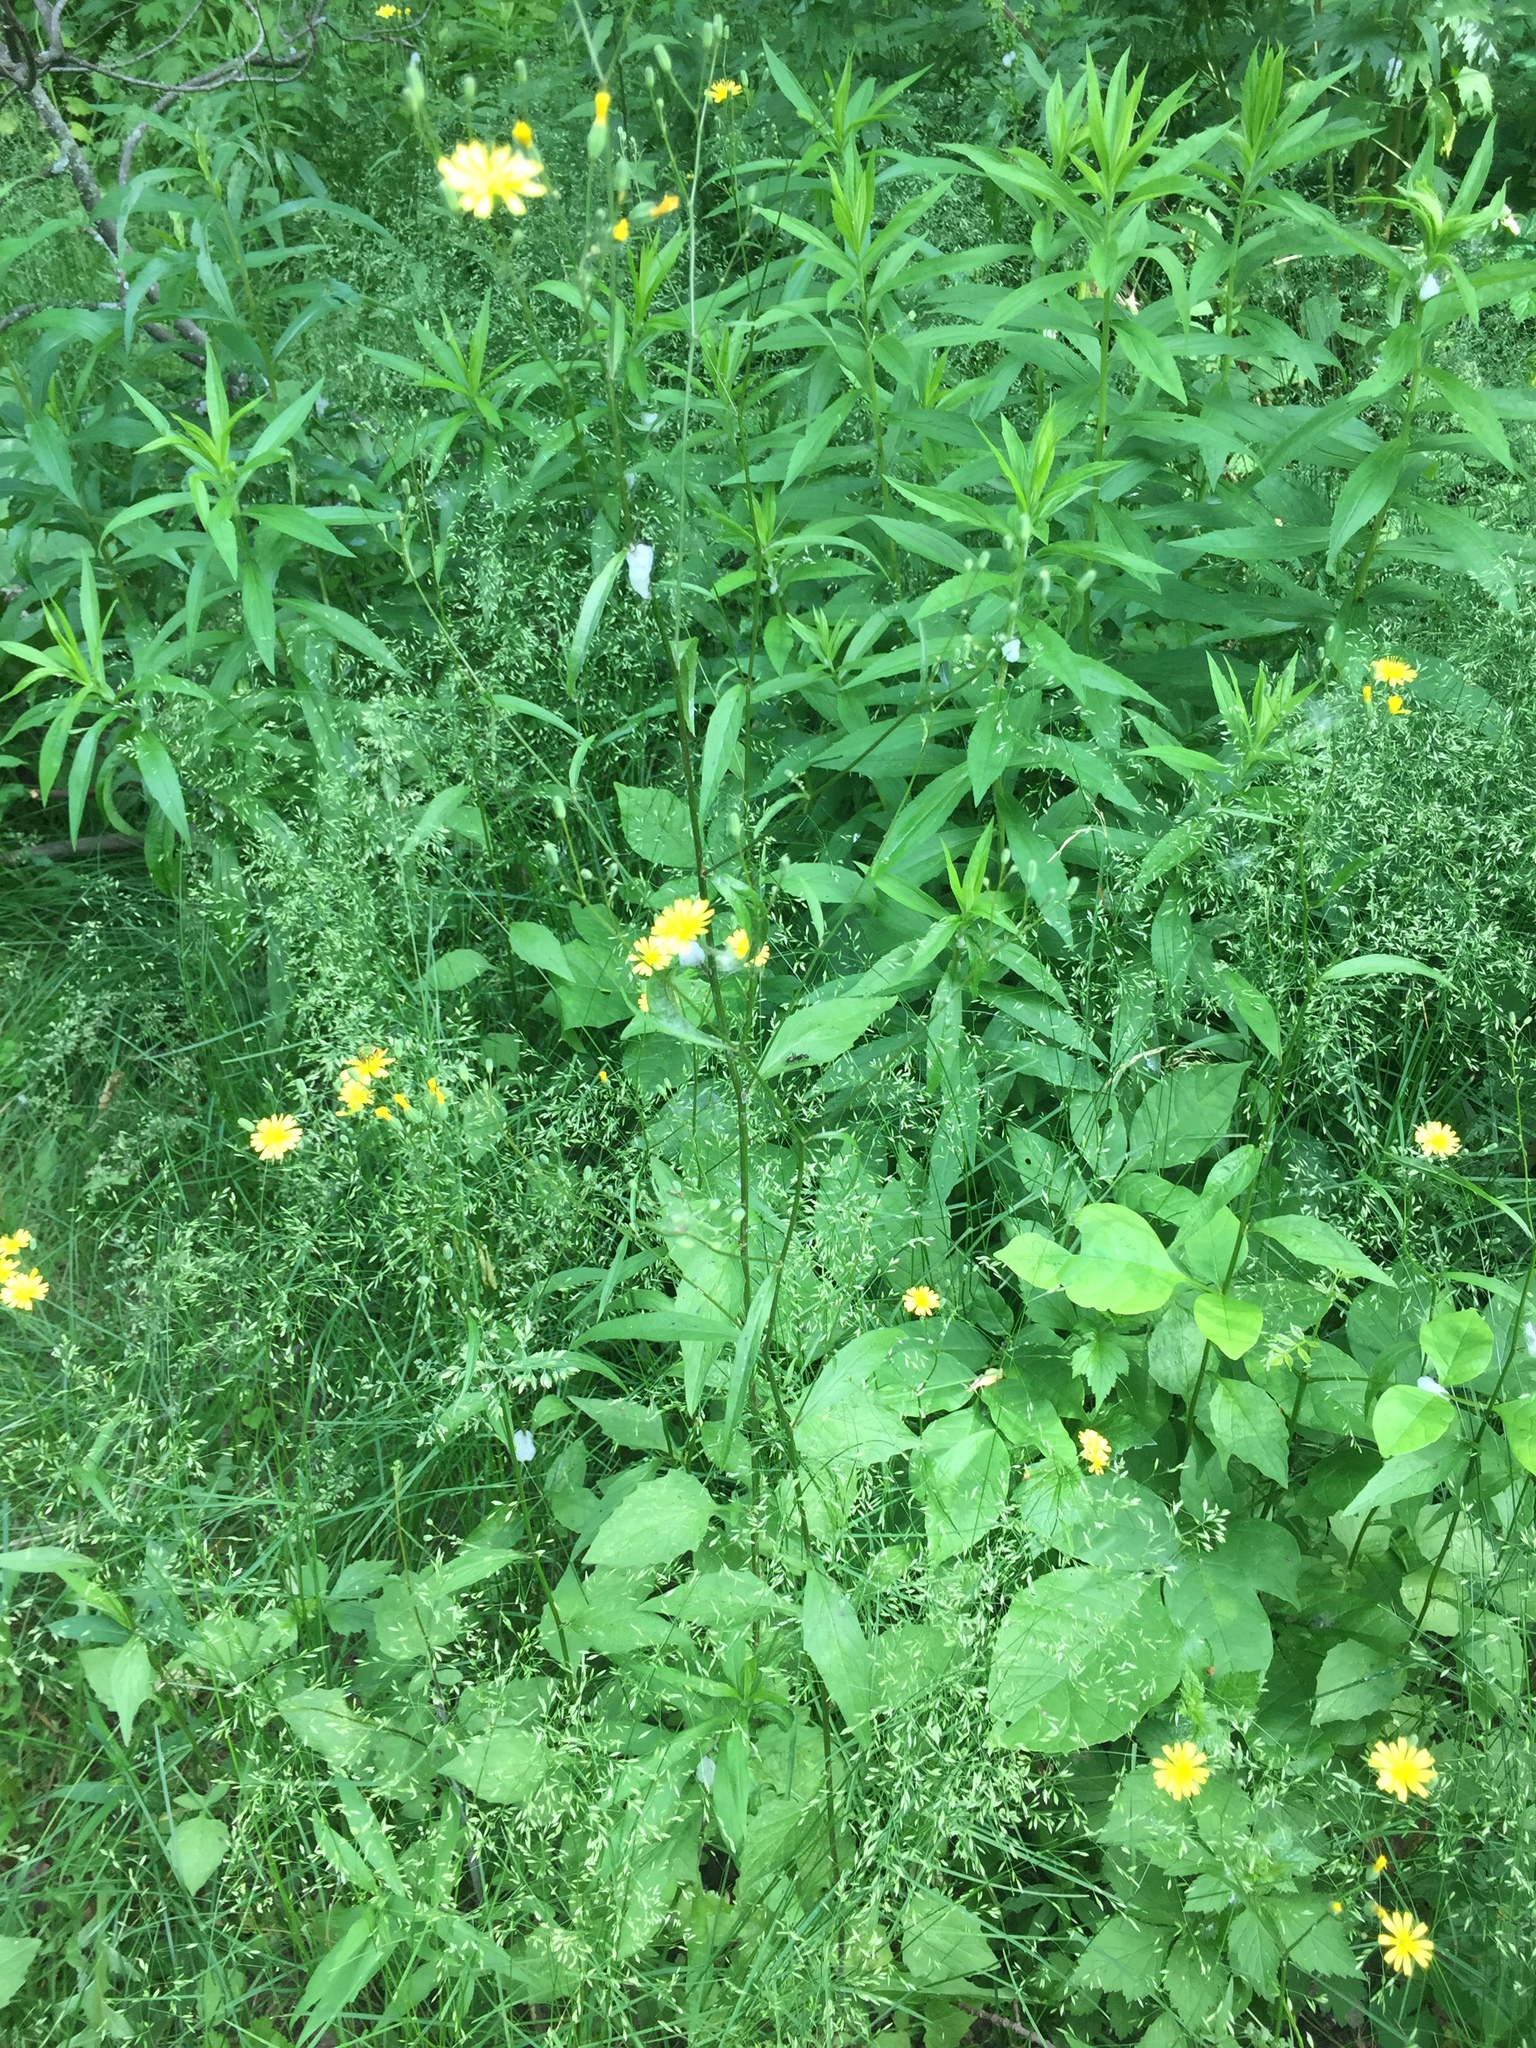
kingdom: Plantae
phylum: Tracheophyta
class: Magnoliopsida
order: Asterales
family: Asteraceae
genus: Lapsana
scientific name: Lapsana communis
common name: Nipplewort
